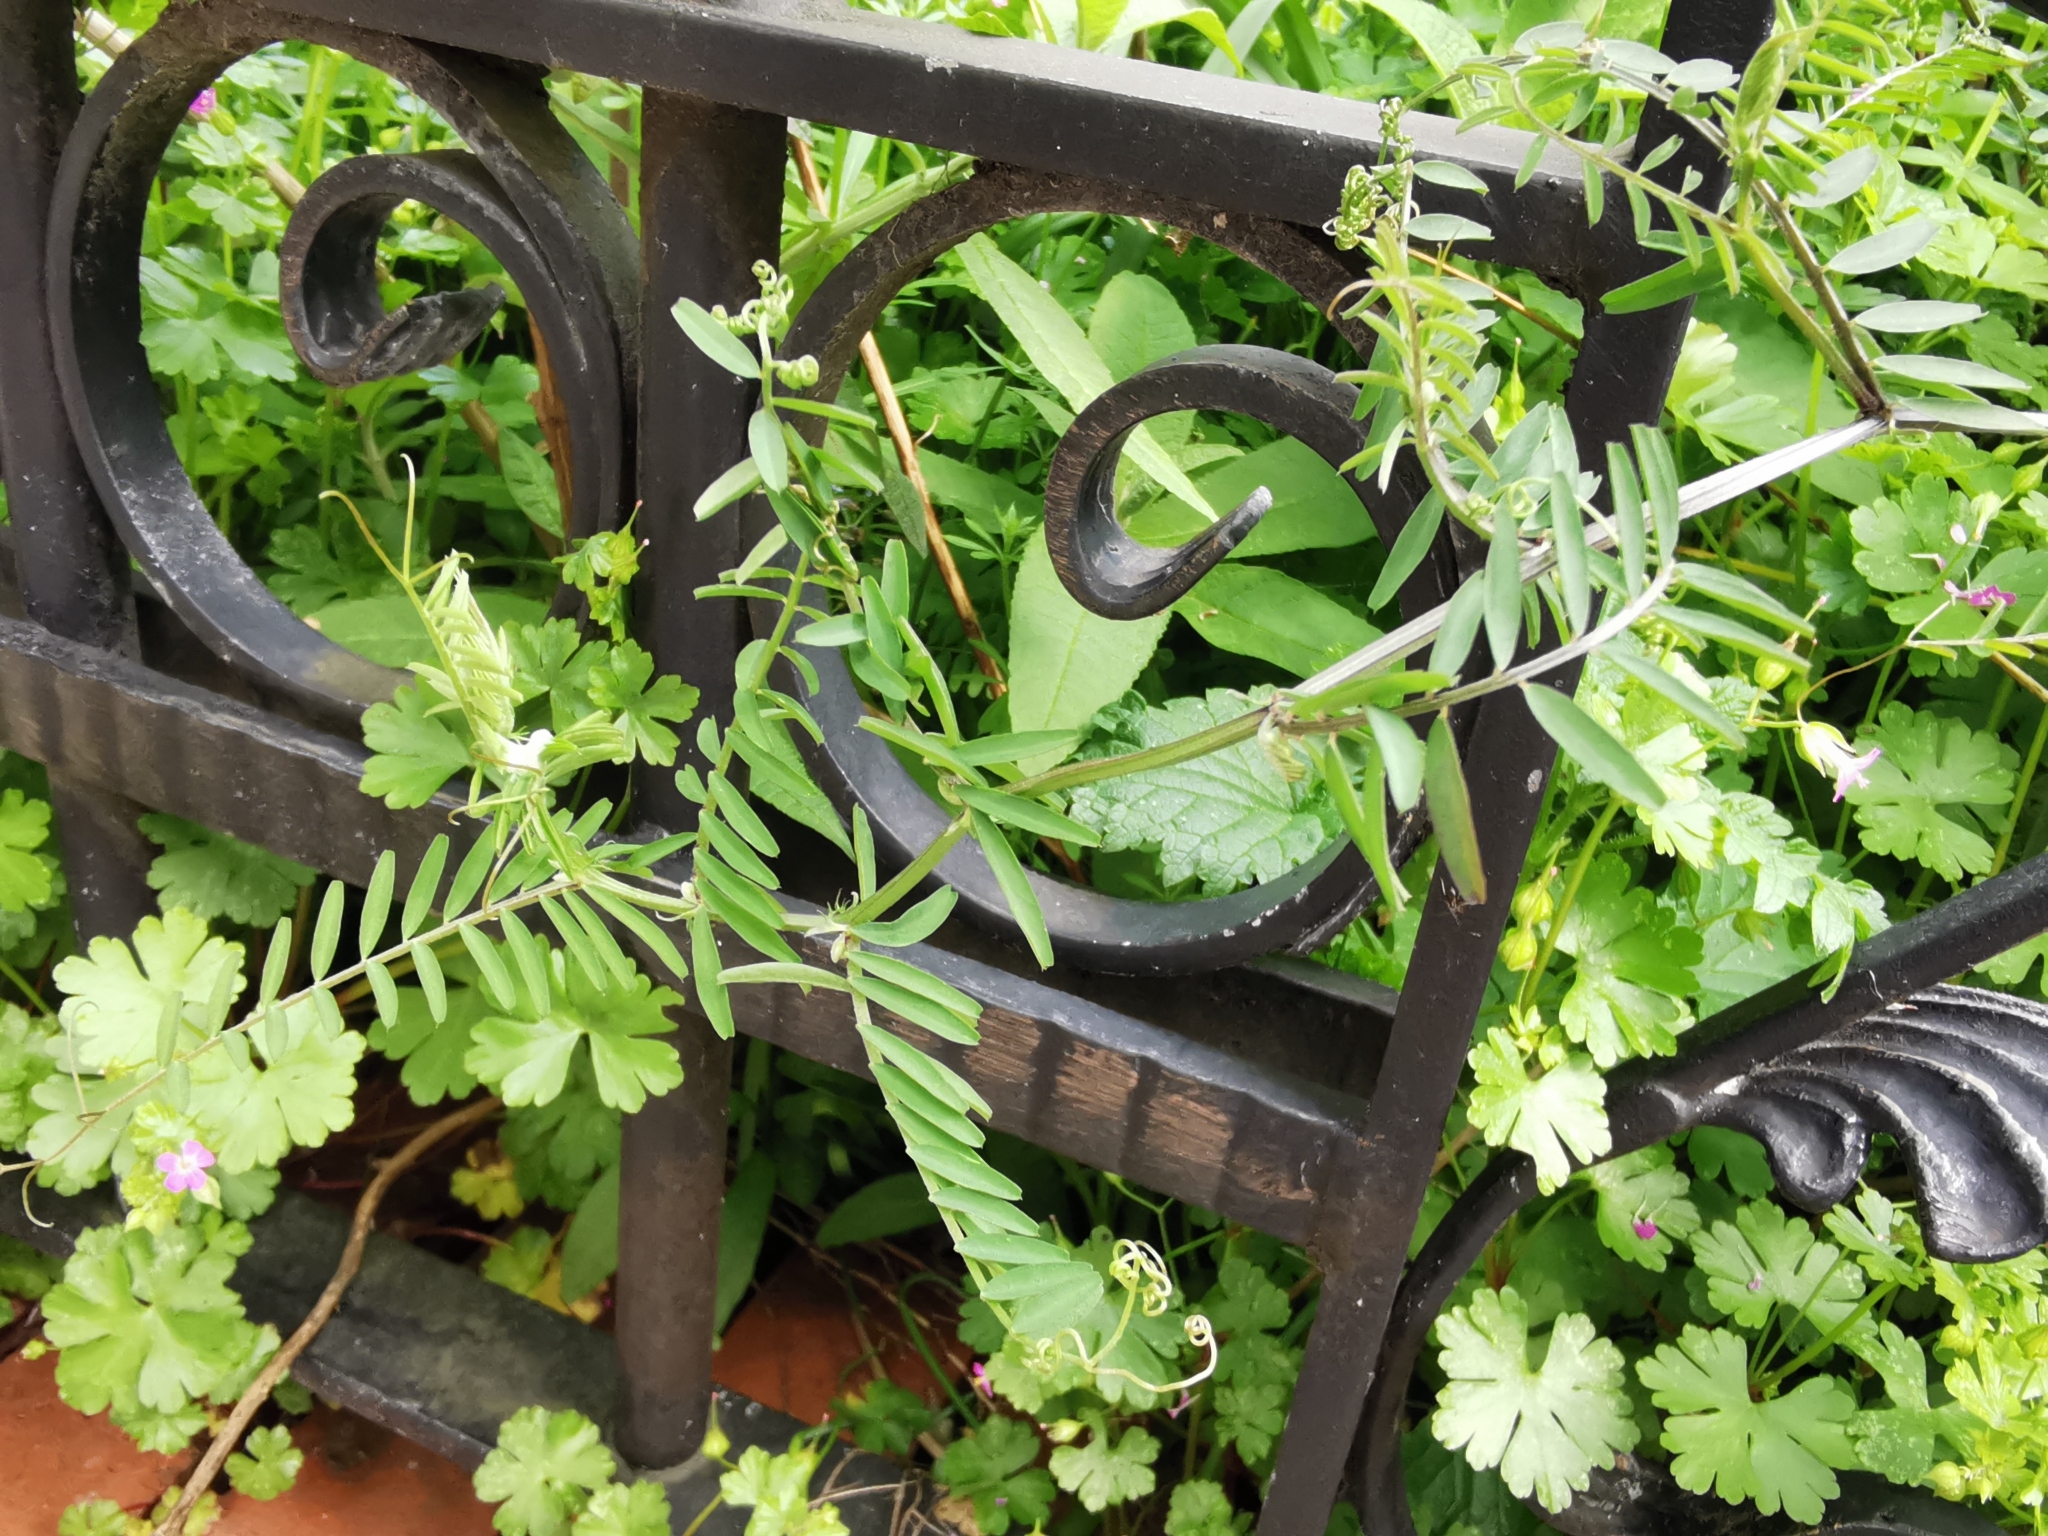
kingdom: Plantae
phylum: Tracheophyta
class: Magnoliopsida
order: Fabales
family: Fabaceae
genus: Vicia
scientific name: Vicia hirsuta
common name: Tiny vetch
